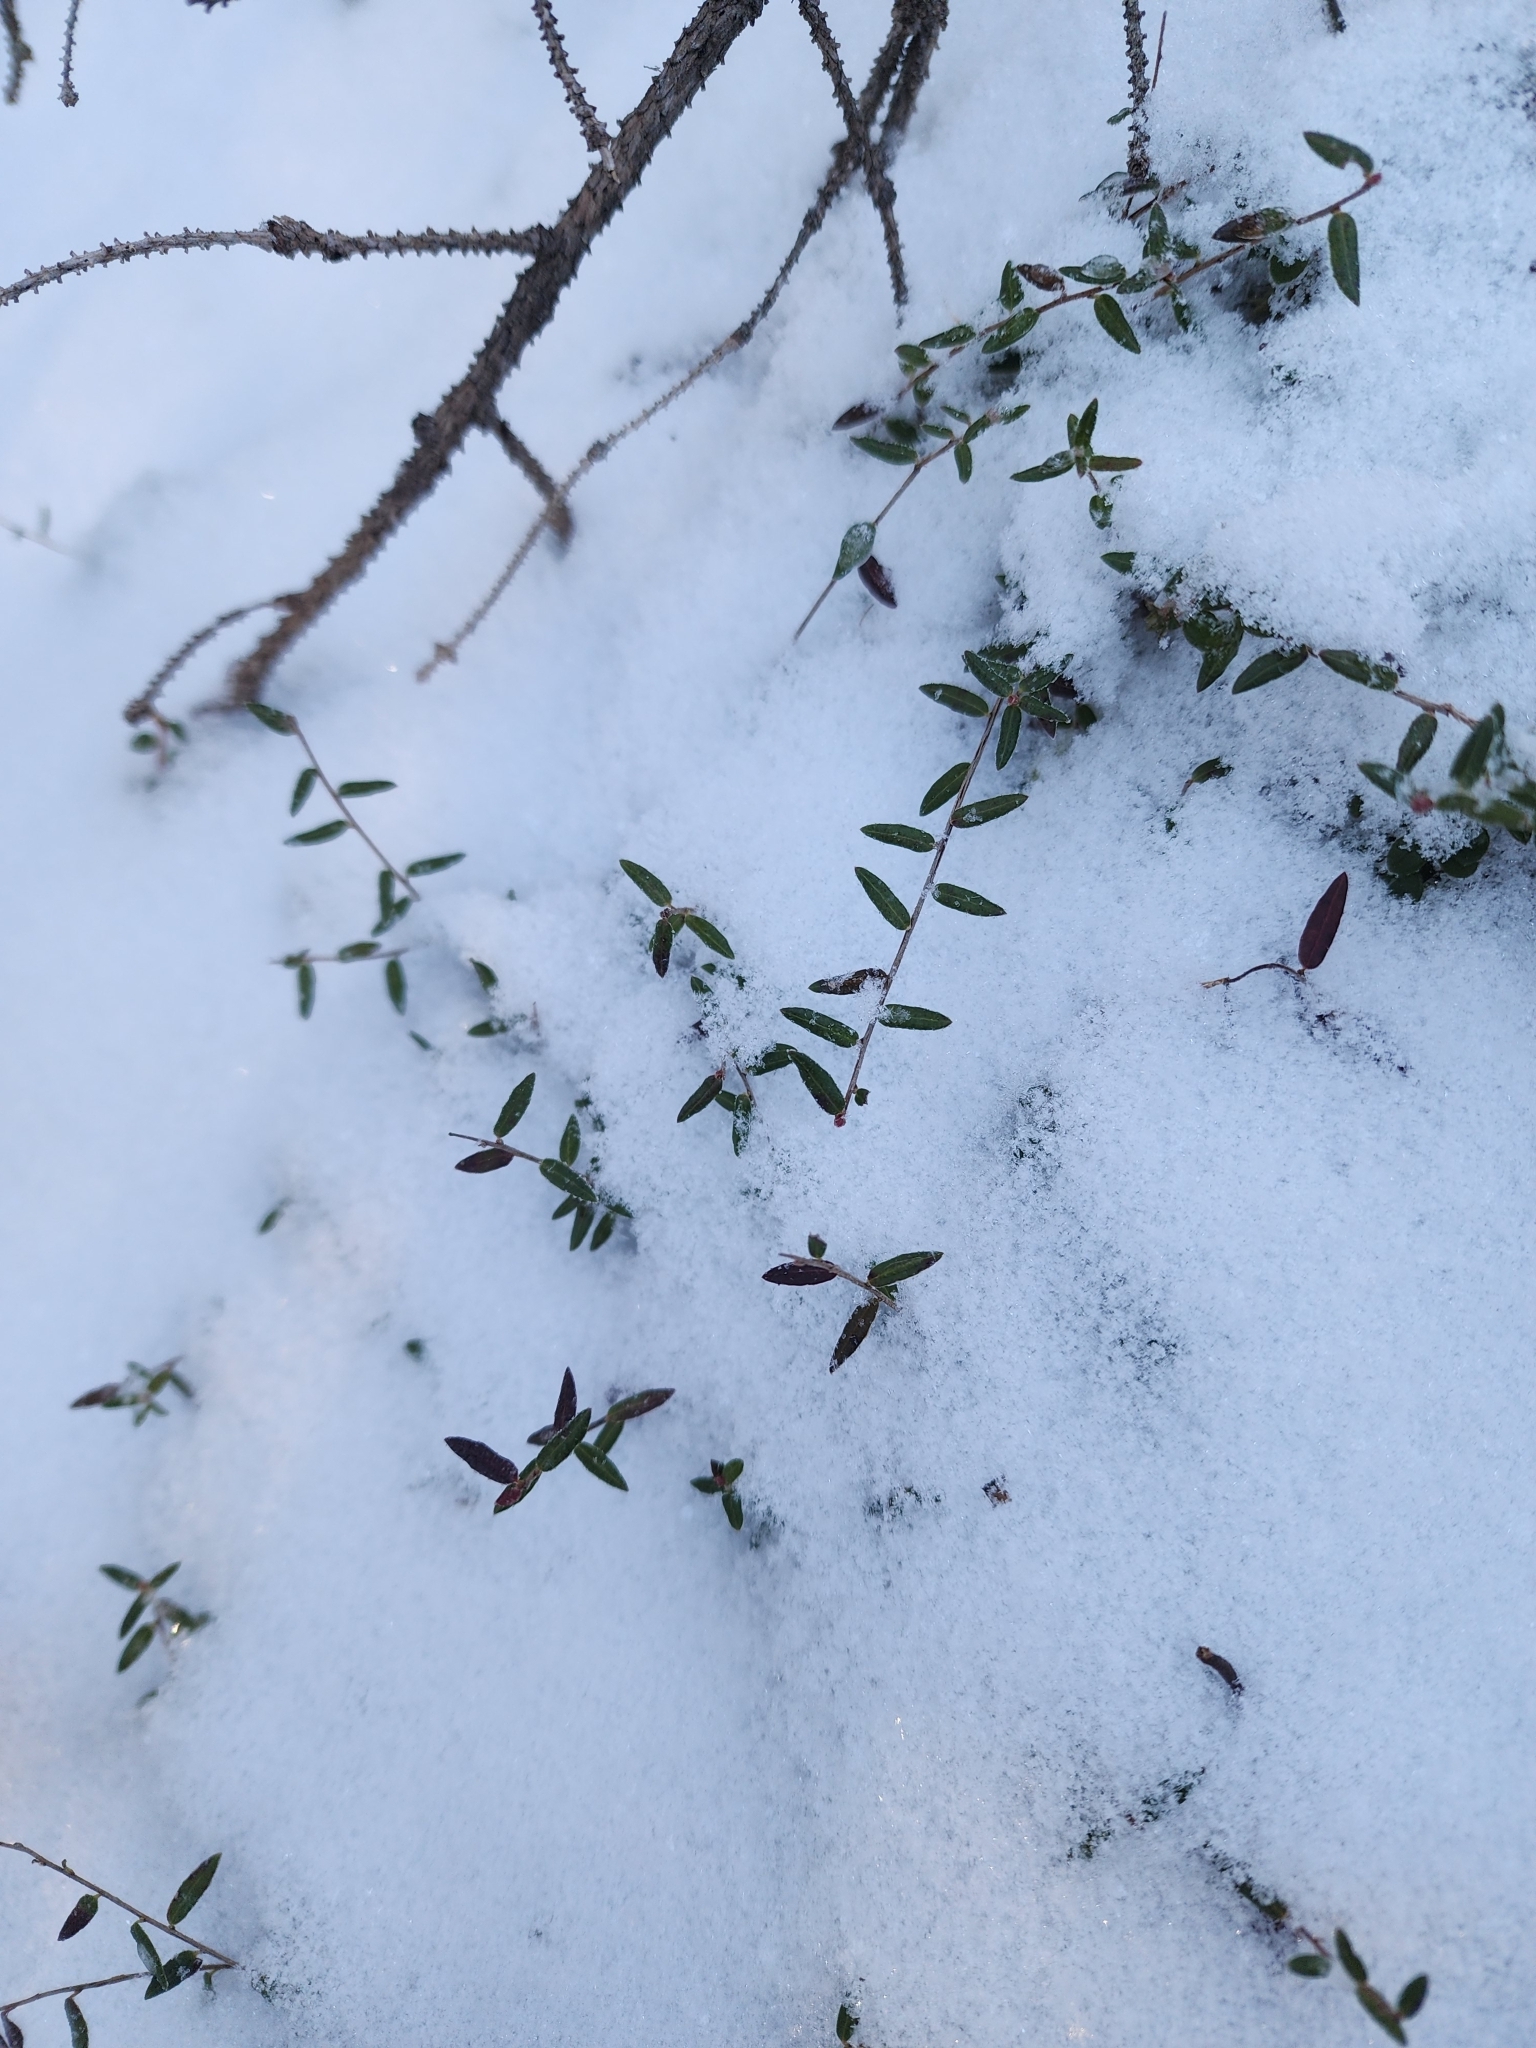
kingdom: Plantae
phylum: Tracheophyta
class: Magnoliopsida
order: Ericales
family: Ericaceae
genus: Vaccinium
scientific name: Vaccinium oxycoccos
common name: Cranberry
